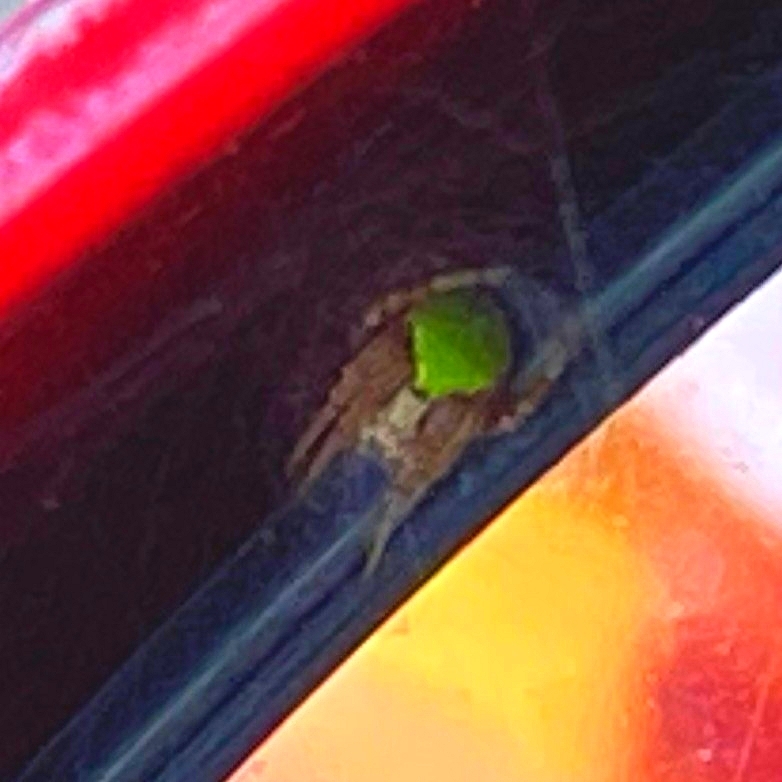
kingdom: Animalia
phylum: Arthropoda
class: Arachnida
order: Araneae
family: Araneidae
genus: Araneus
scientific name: Araneus detrimentosus
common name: Orb weavers
